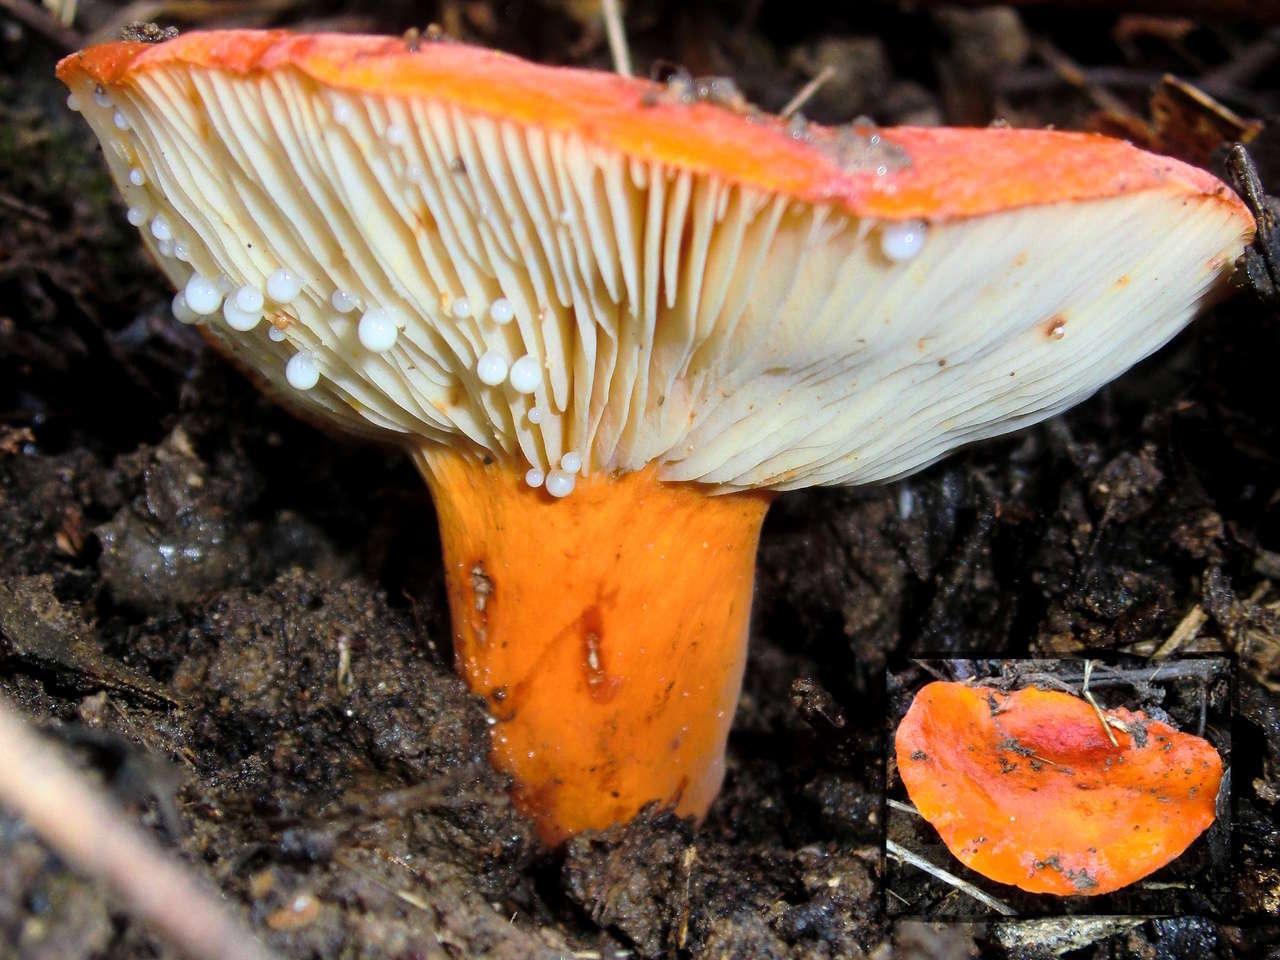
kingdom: Fungi
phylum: Basidiomycota
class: Agaricomycetes
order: Russulales
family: Russulaceae
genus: Lactifluus
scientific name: Lactifluus clarkeae
